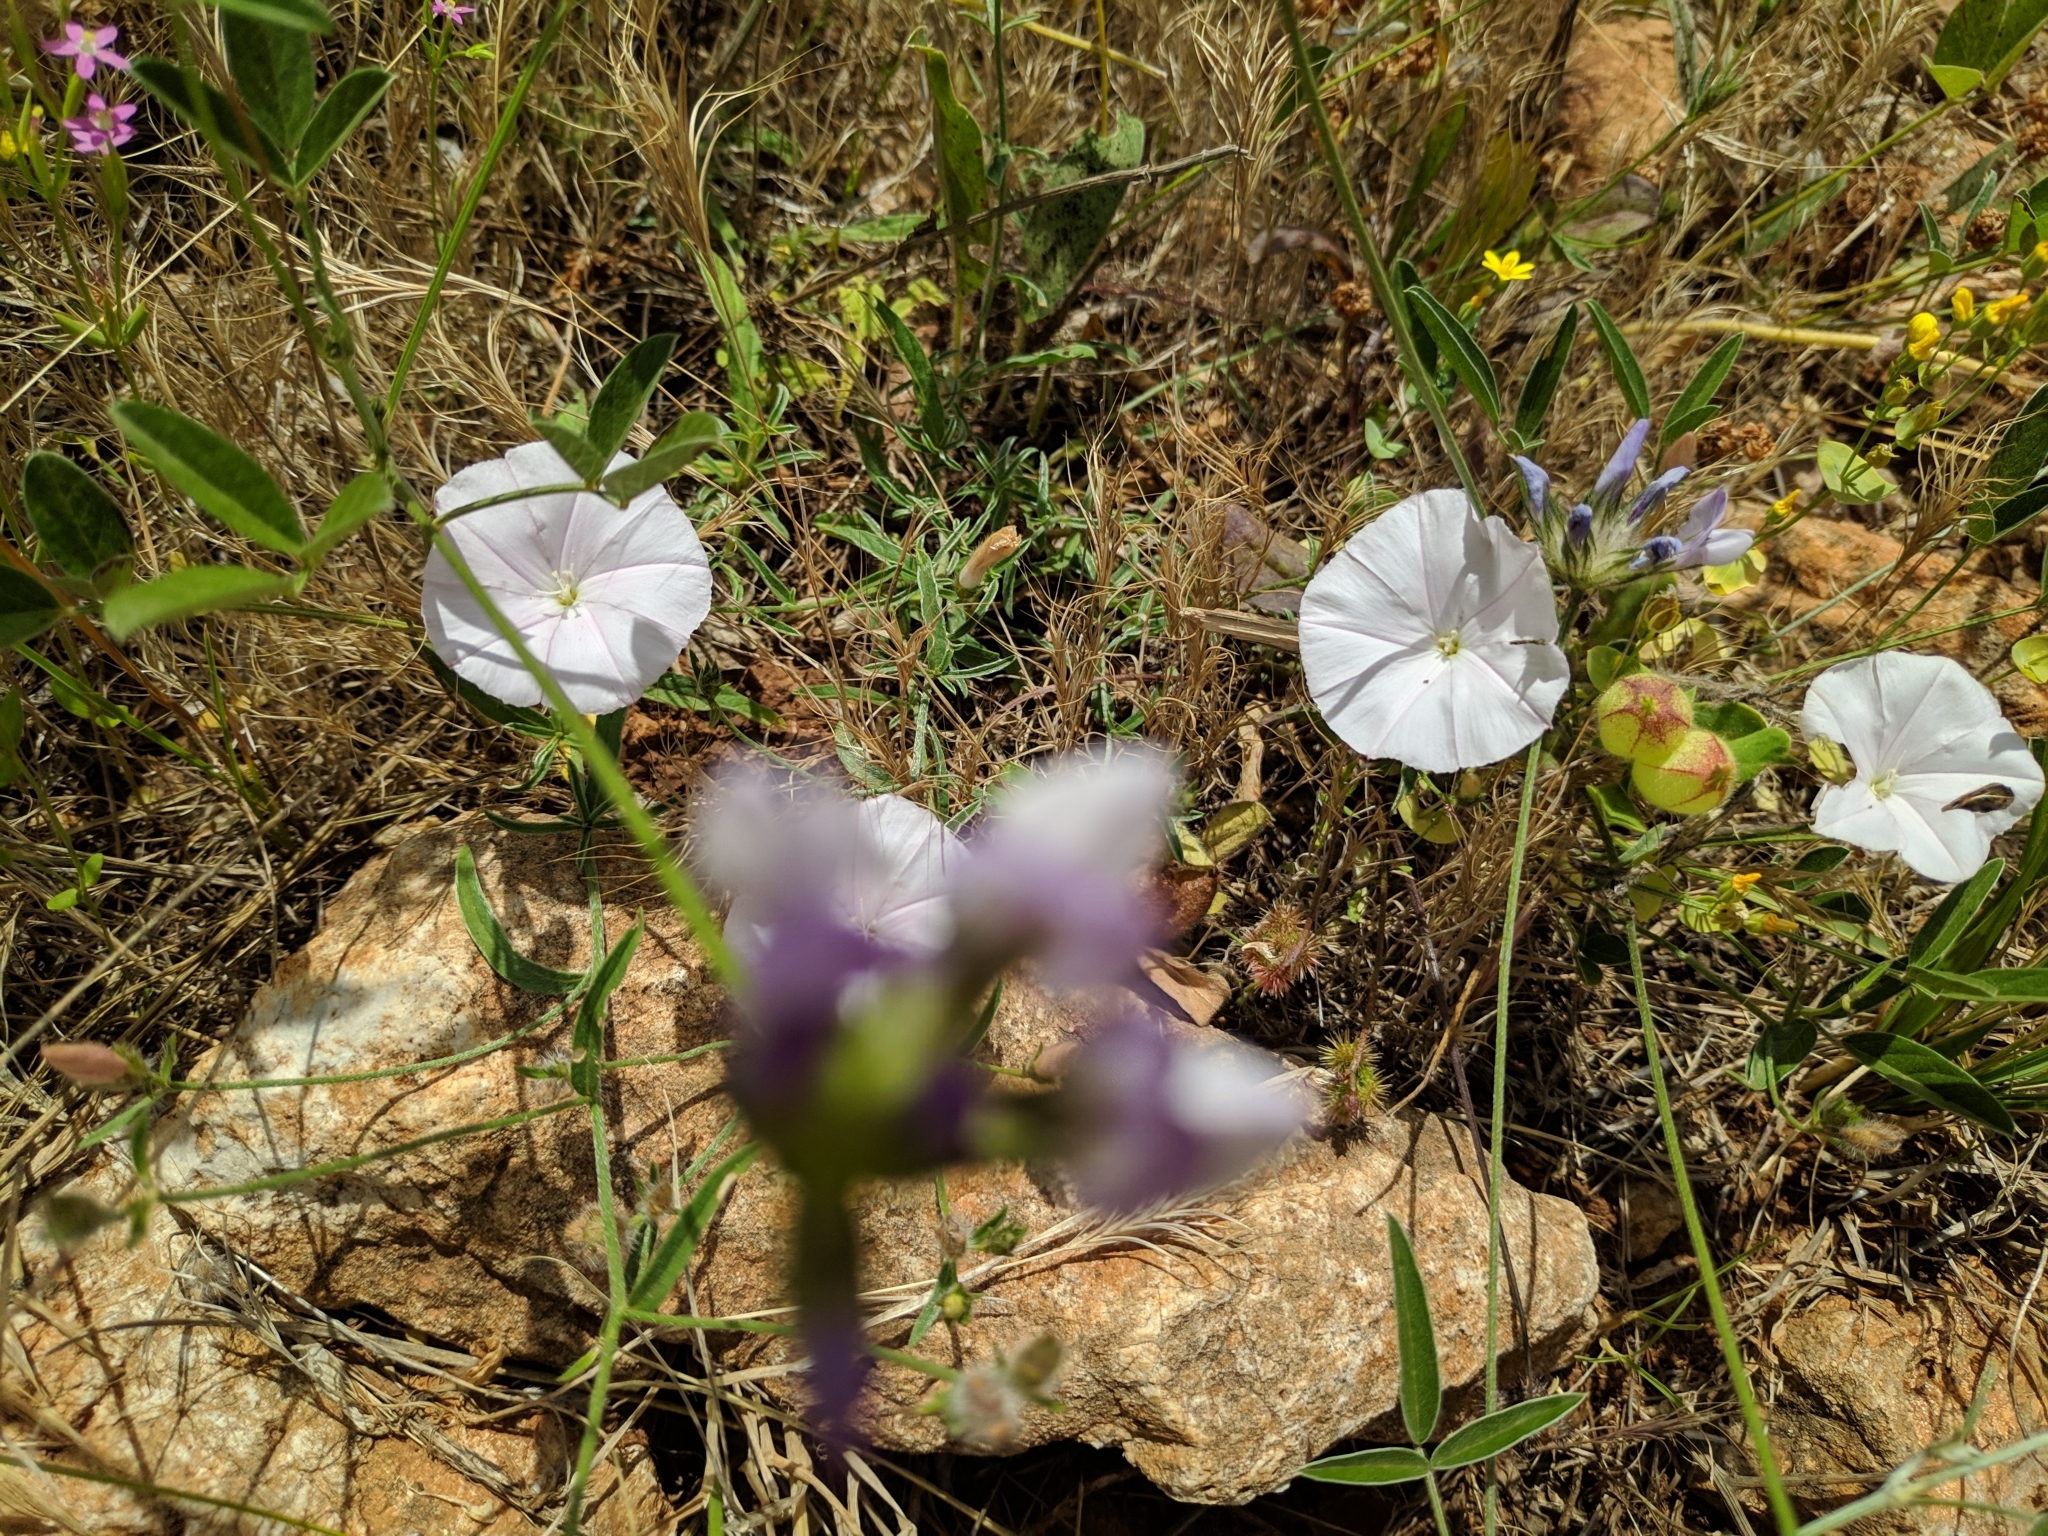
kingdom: Plantae
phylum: Tracheophyta
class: Magnoliopsida
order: Solanales
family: Convolvulaceae
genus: Convolvulus
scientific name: Convolvulus cantabrica
